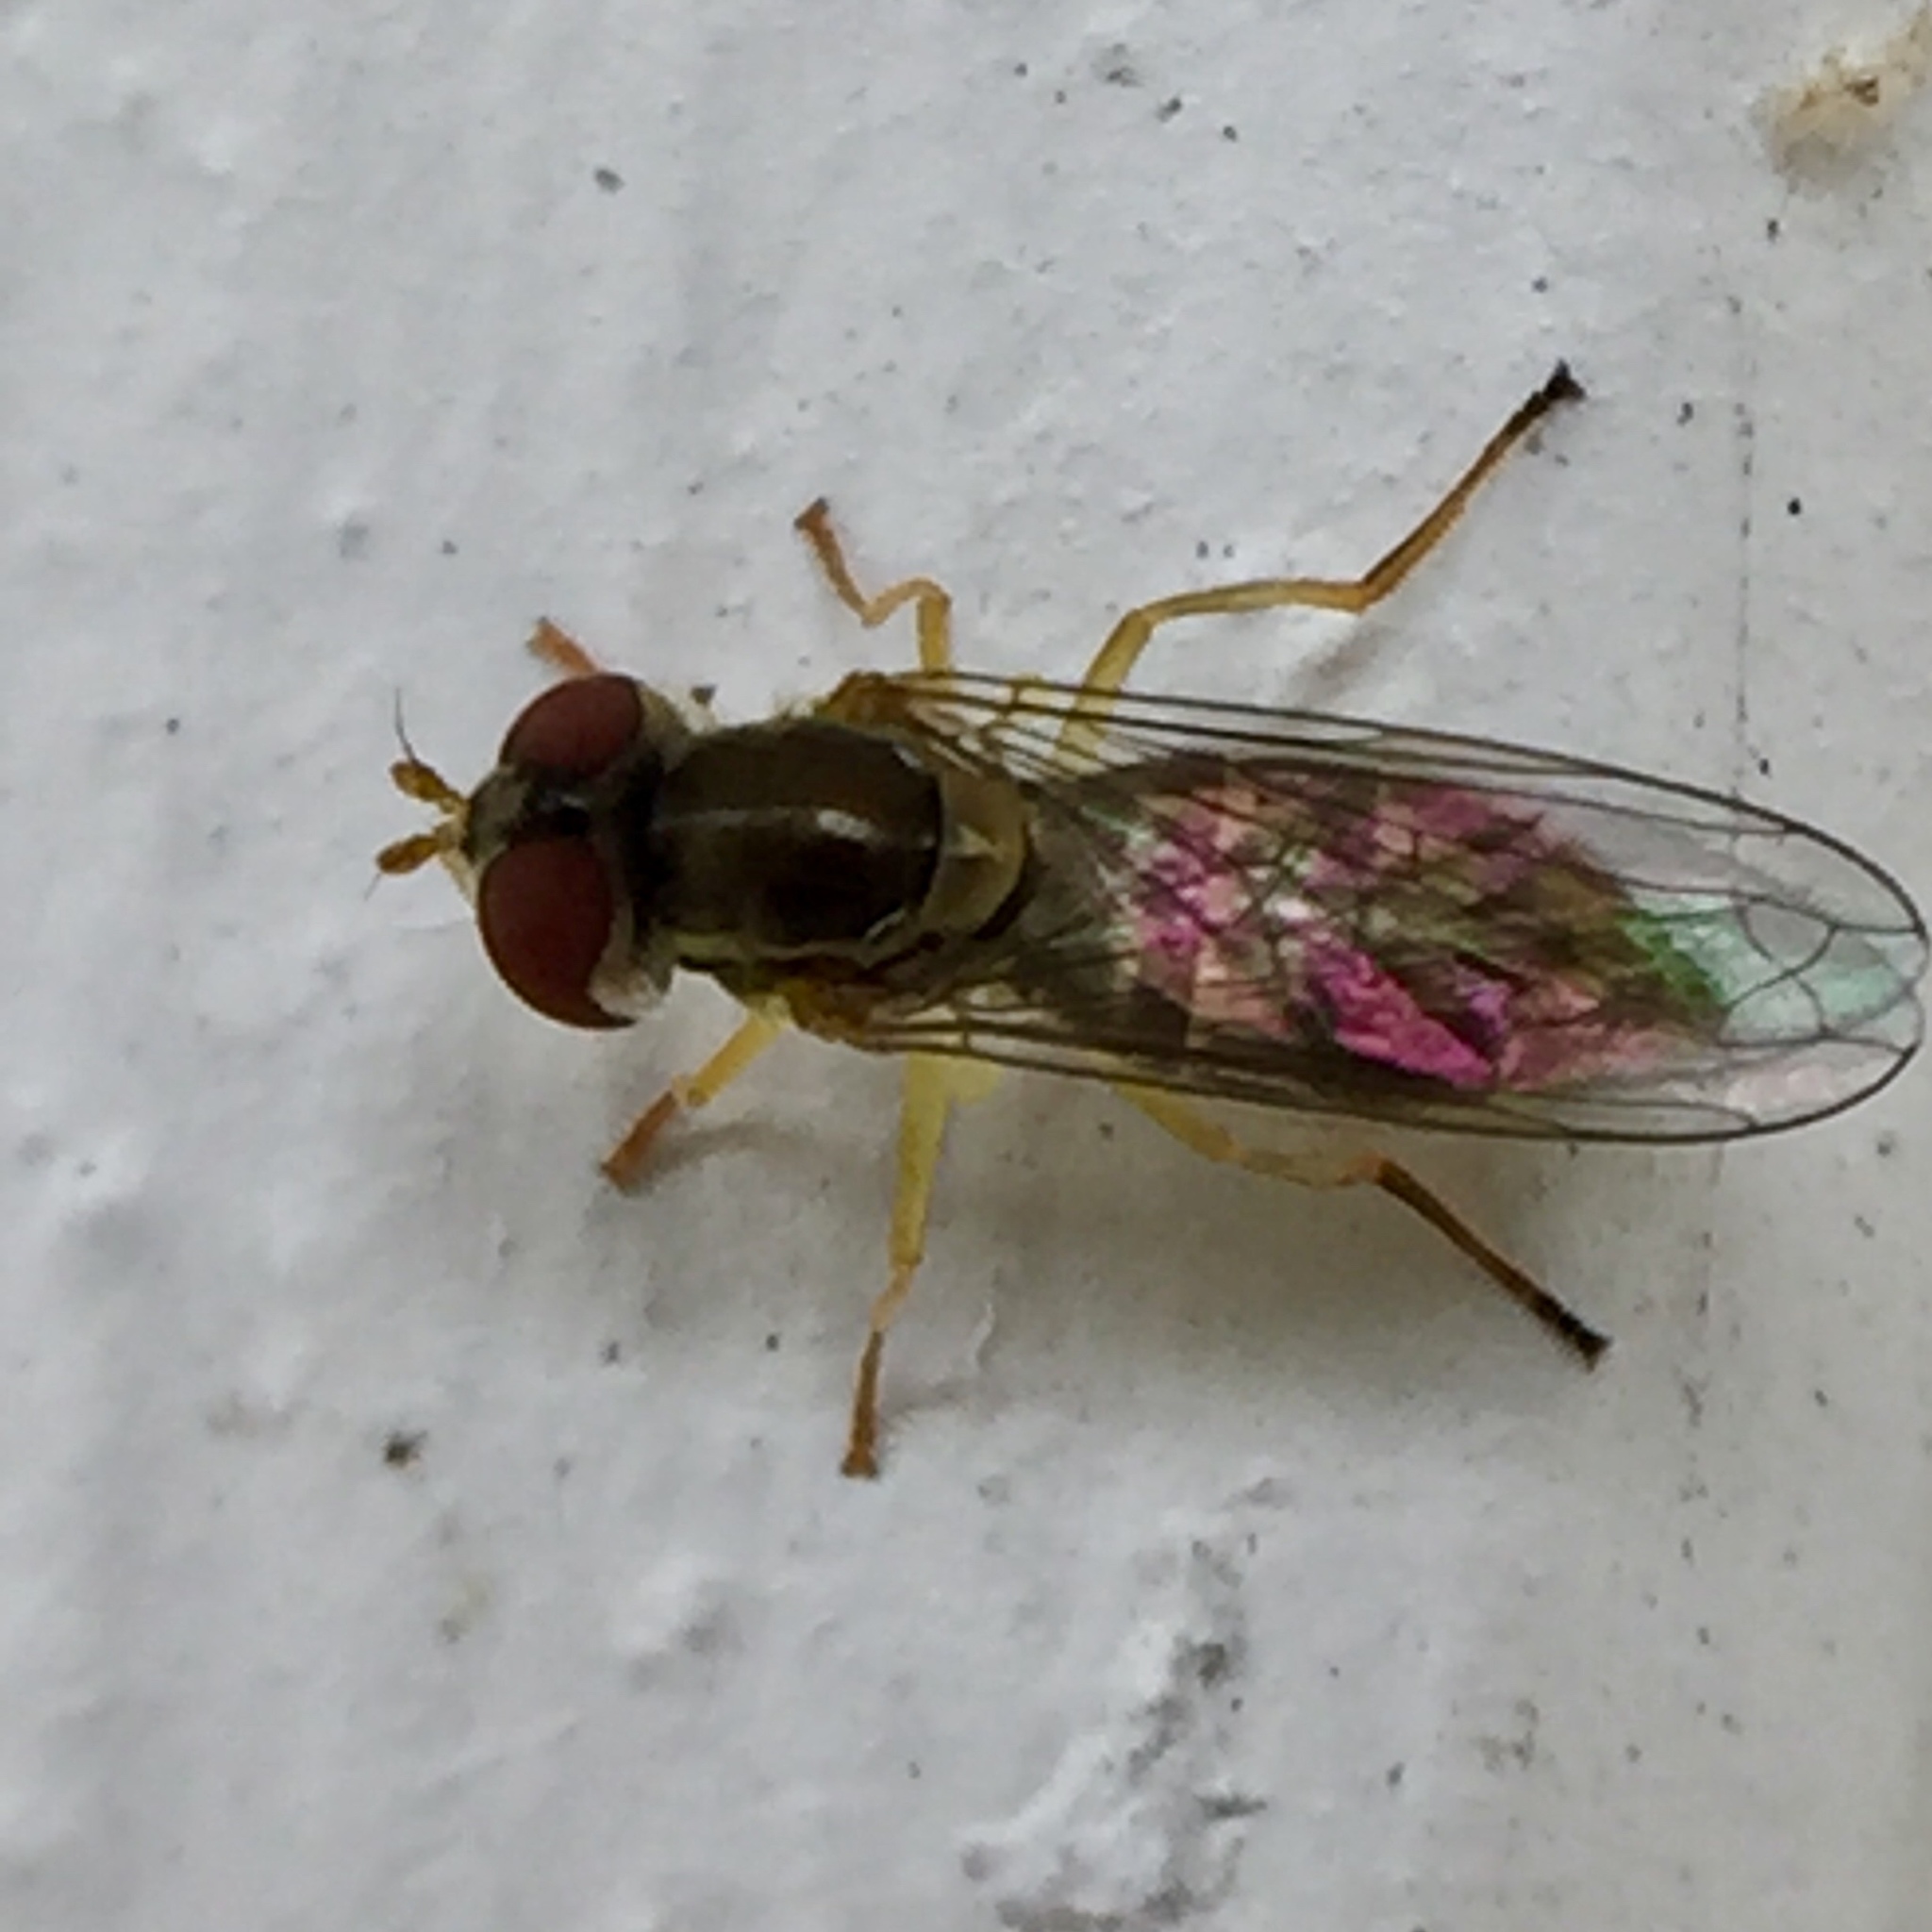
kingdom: Animalia
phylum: Arthropoda
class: Insecta
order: Diptera
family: Syrphidae
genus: Toxomerus
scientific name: Toxomerus marginatus
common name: Syrphid fly
